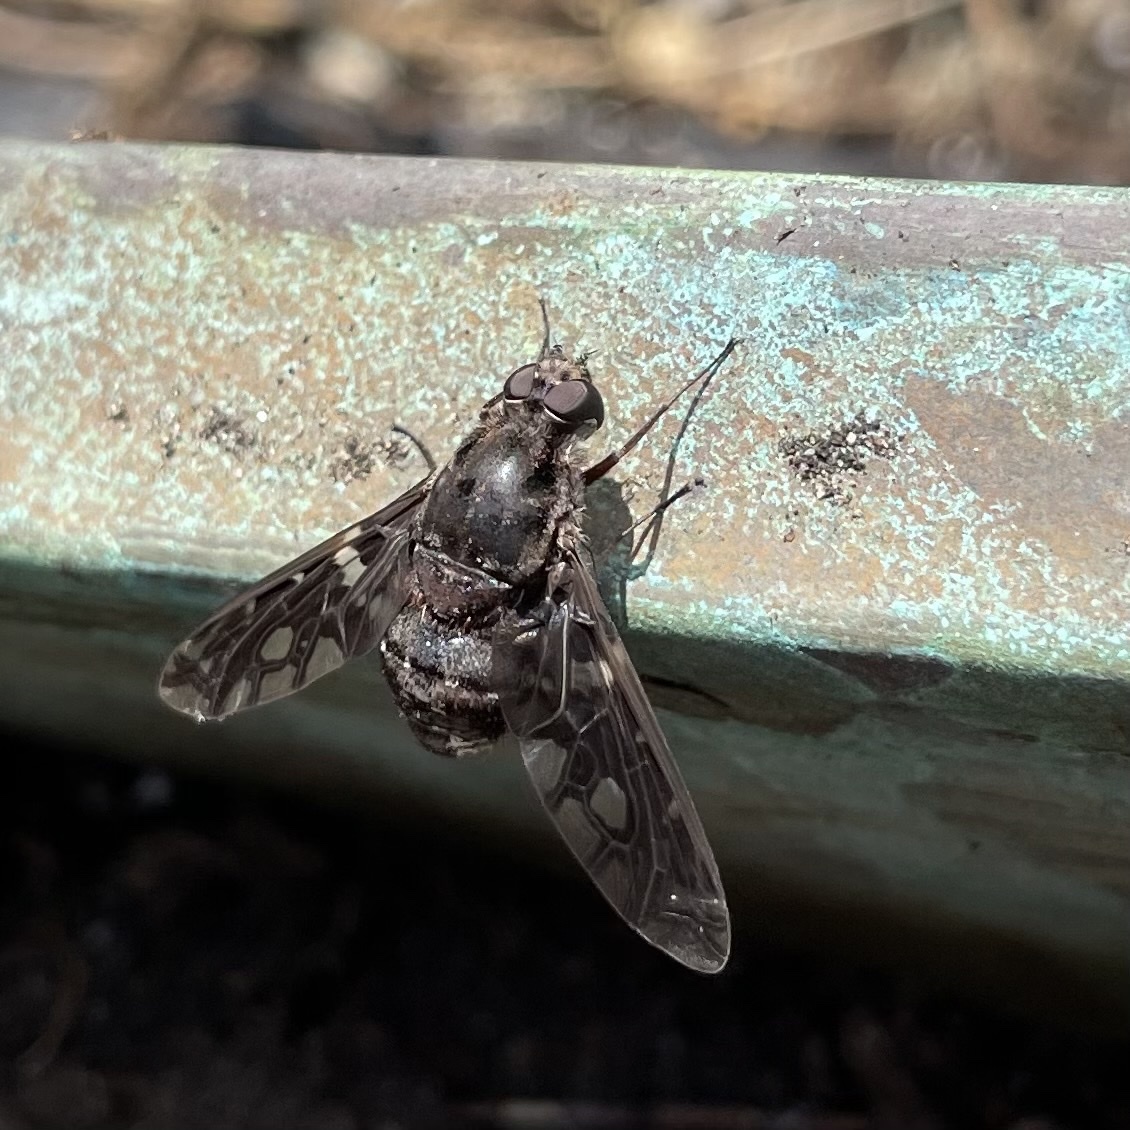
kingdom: Animalia
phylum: Arthropoda
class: Insecta
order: Diptera
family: Bombyliidae
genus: Xenox
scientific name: Xenox tigrinus
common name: Tiger bee fly
